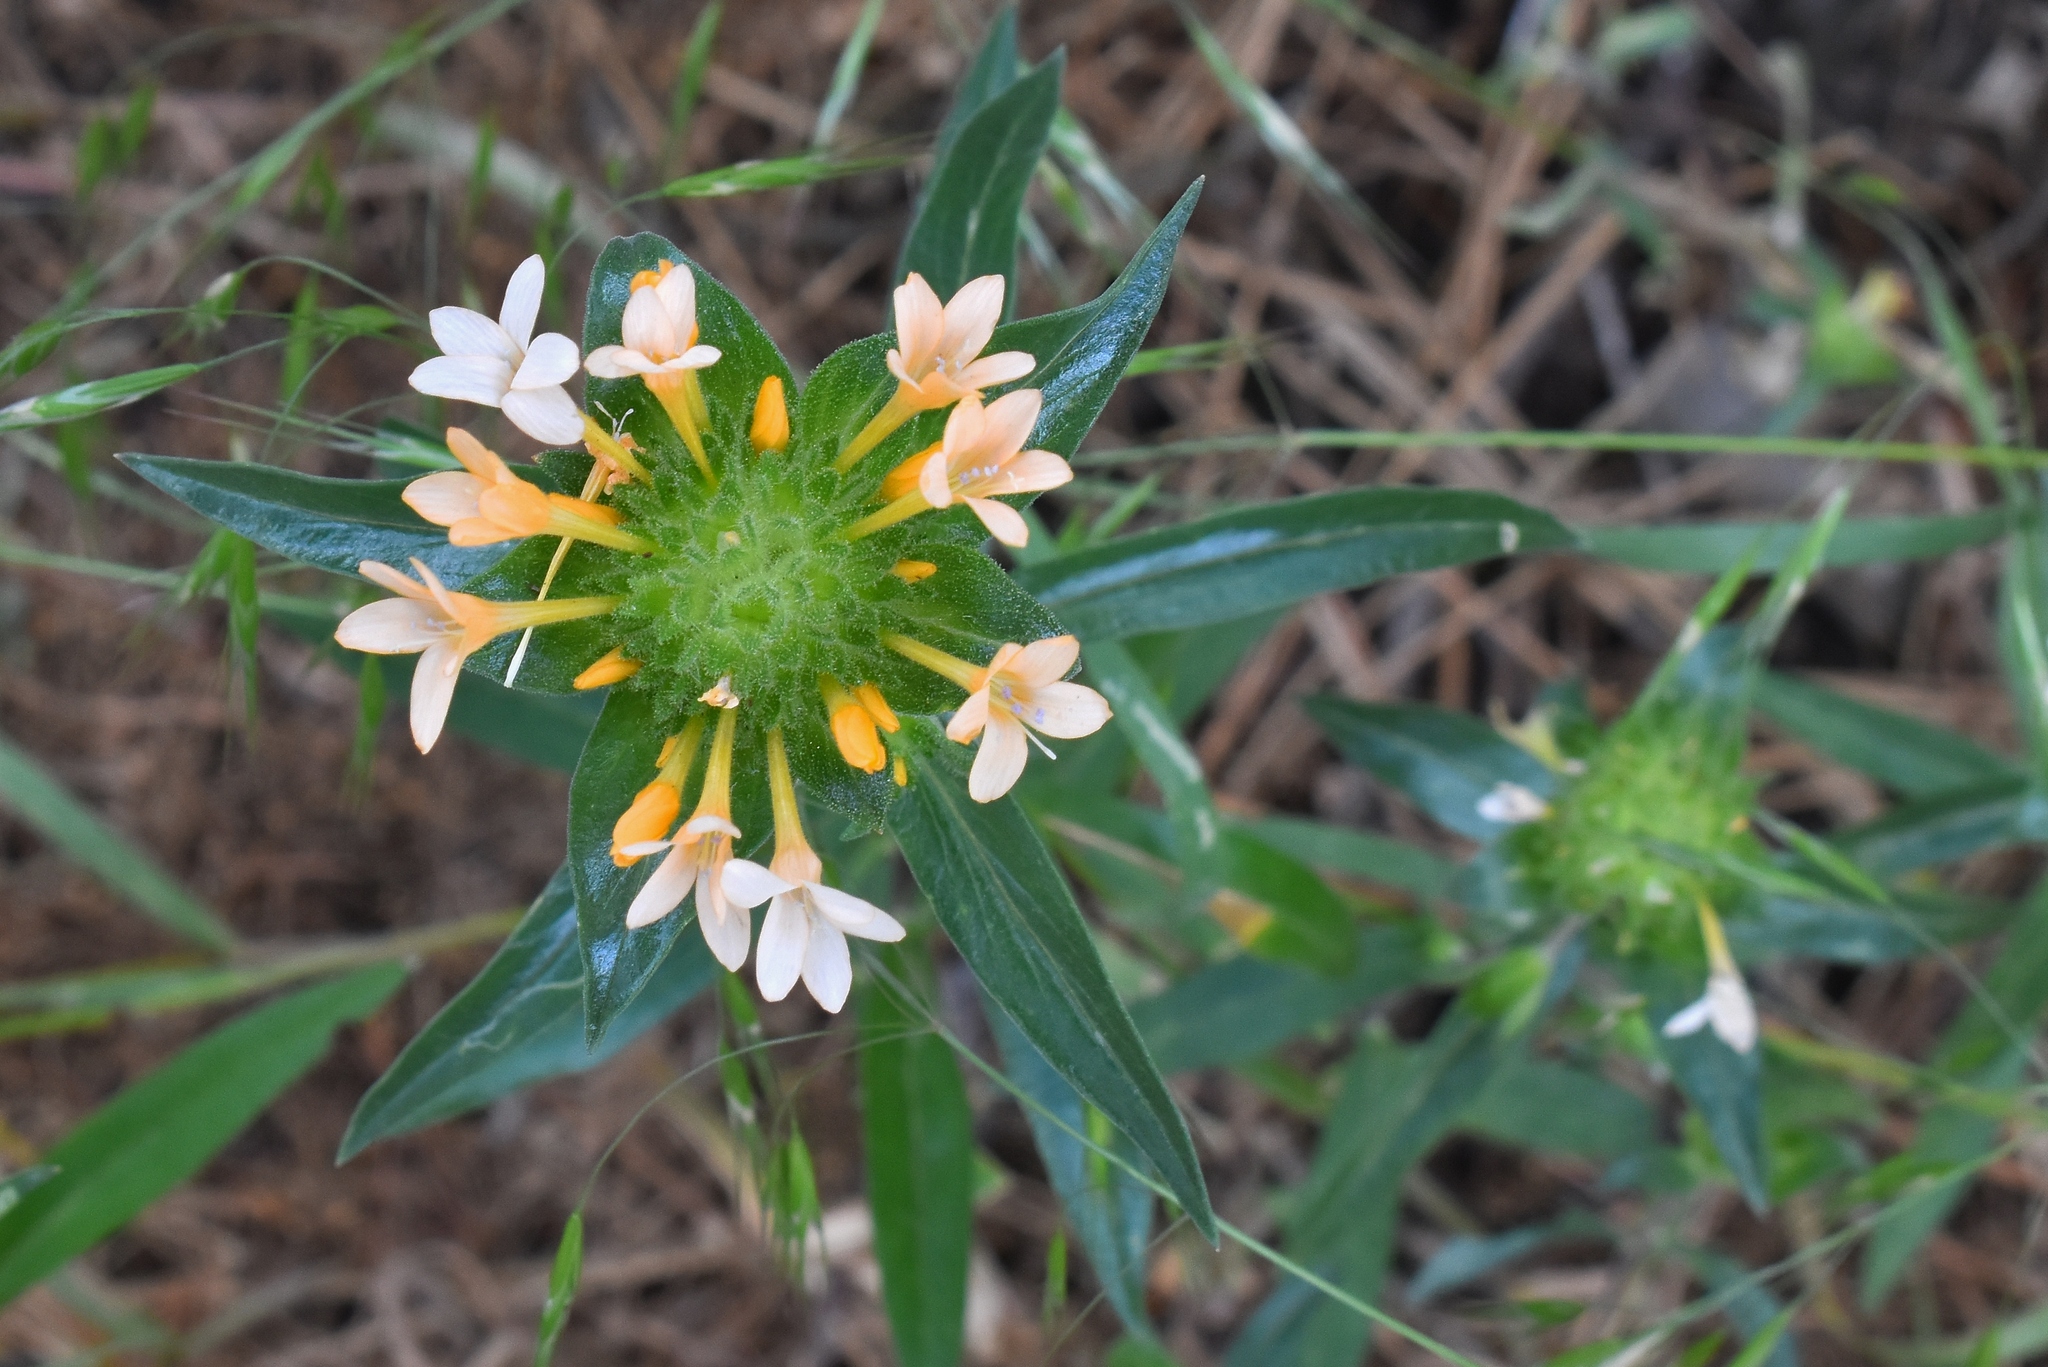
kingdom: Plantae
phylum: Tracheophyta
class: Magnoliopsida
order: Ericales
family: Polemoniaceae
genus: Collomia
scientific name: Collomia grandiflora
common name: California strawflower
